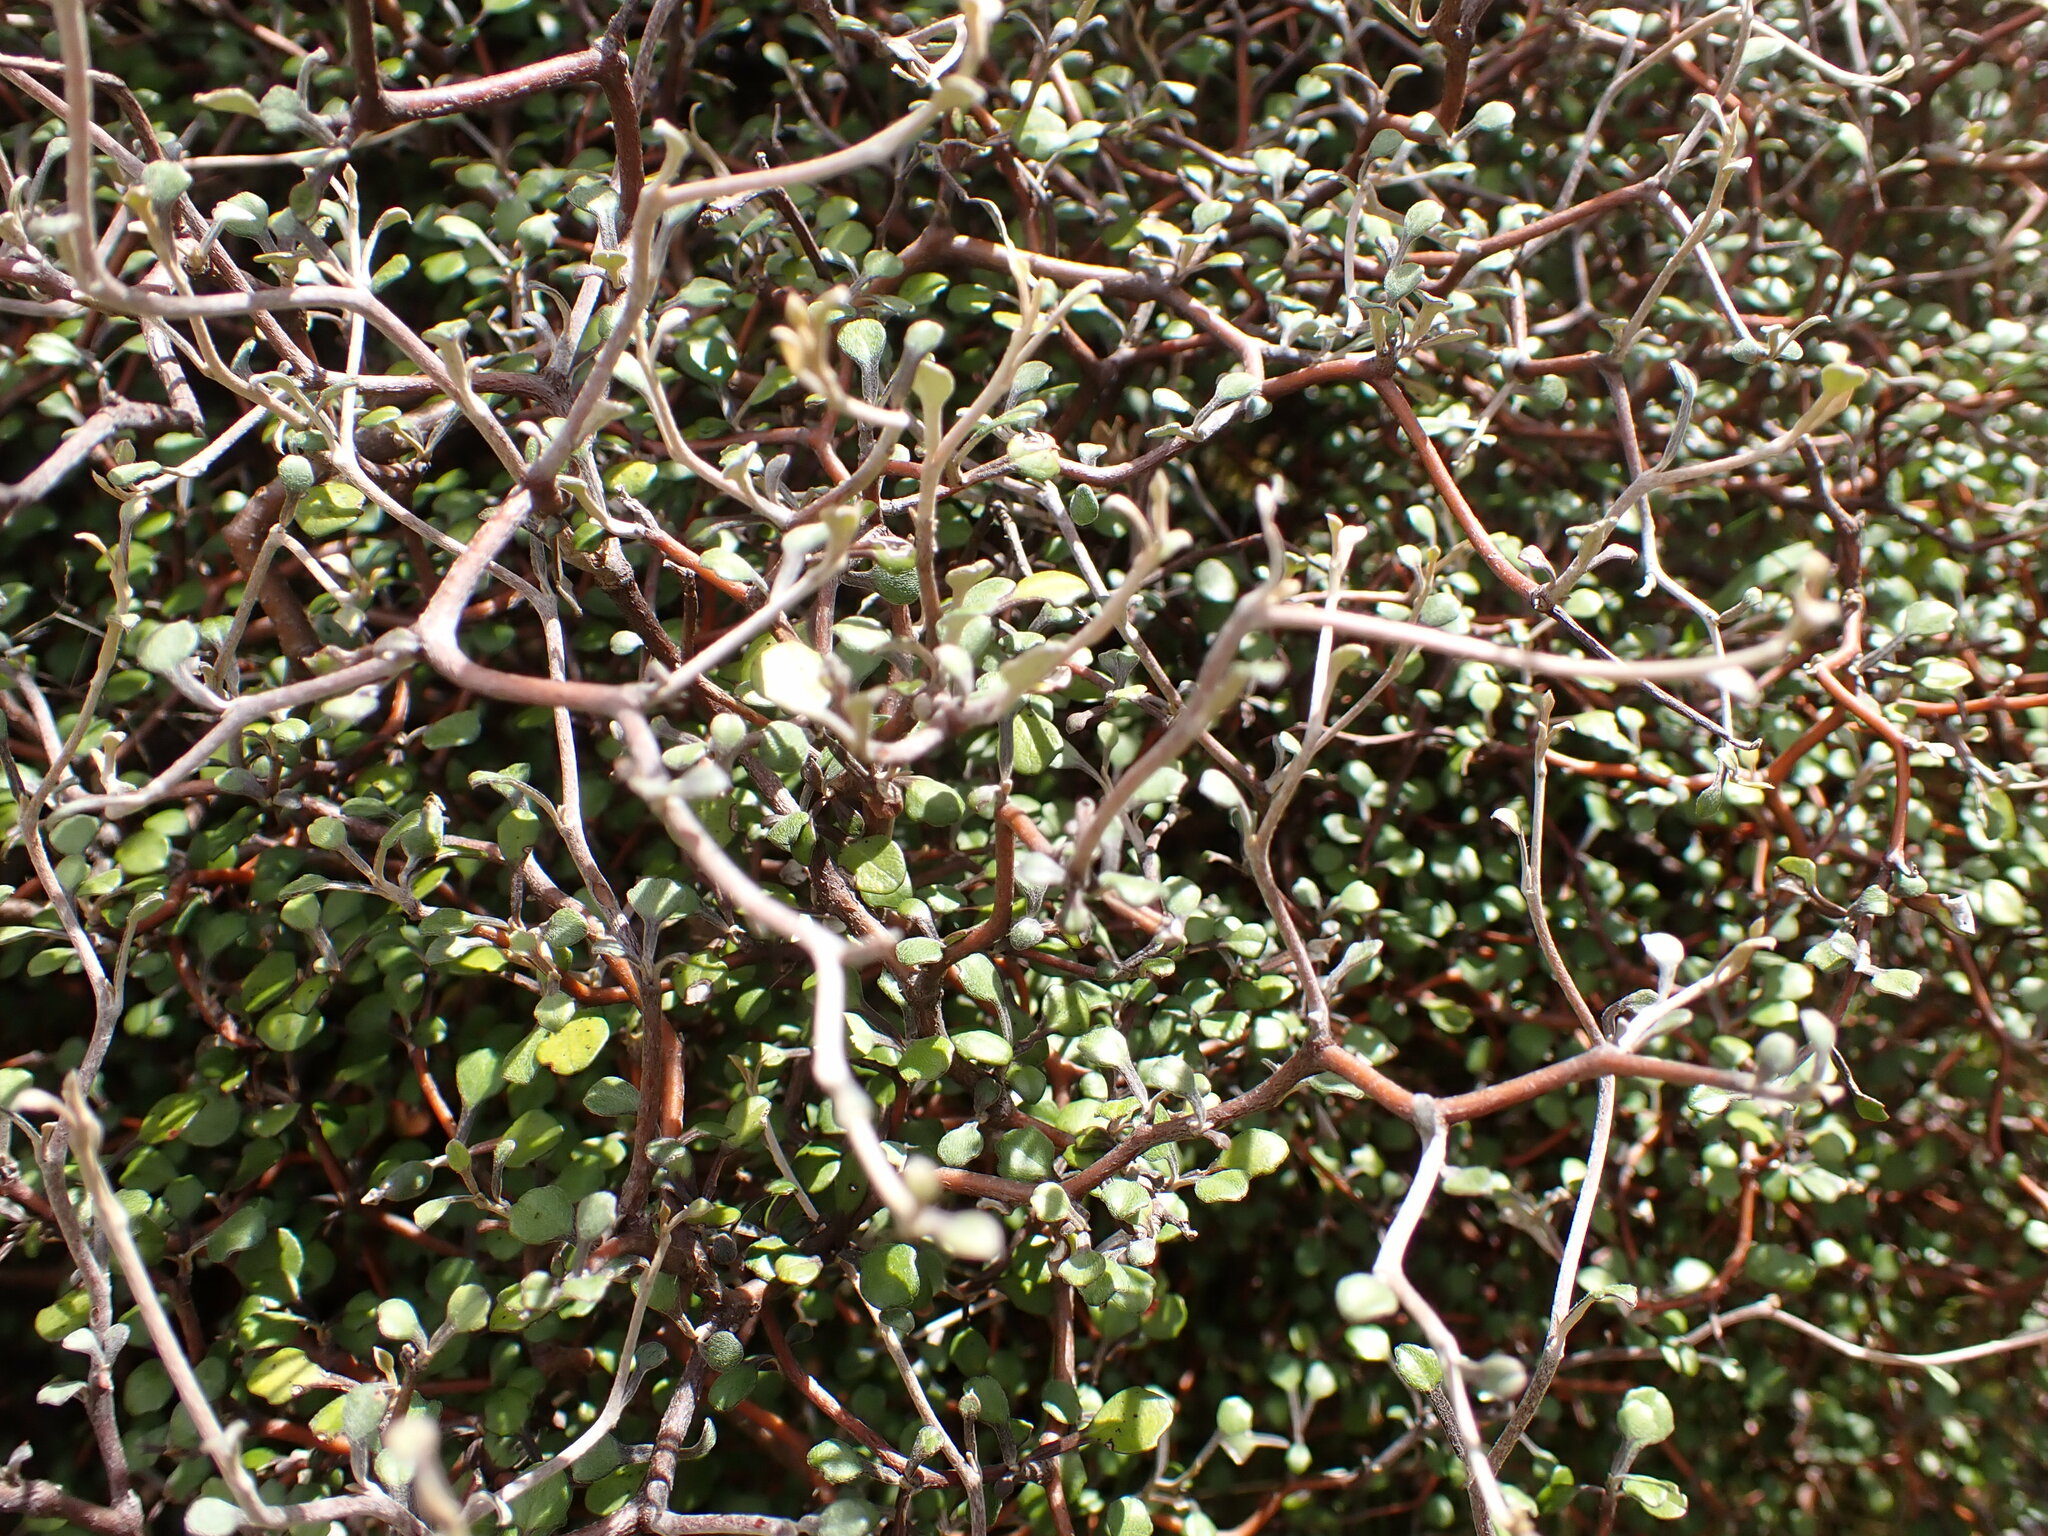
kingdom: Plantae
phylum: Tracheophyta
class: Magnoliopsida
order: Asterales
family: Argophyllaceae
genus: Corokia
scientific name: Corokia cotoneaster
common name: Wire nettingbush
